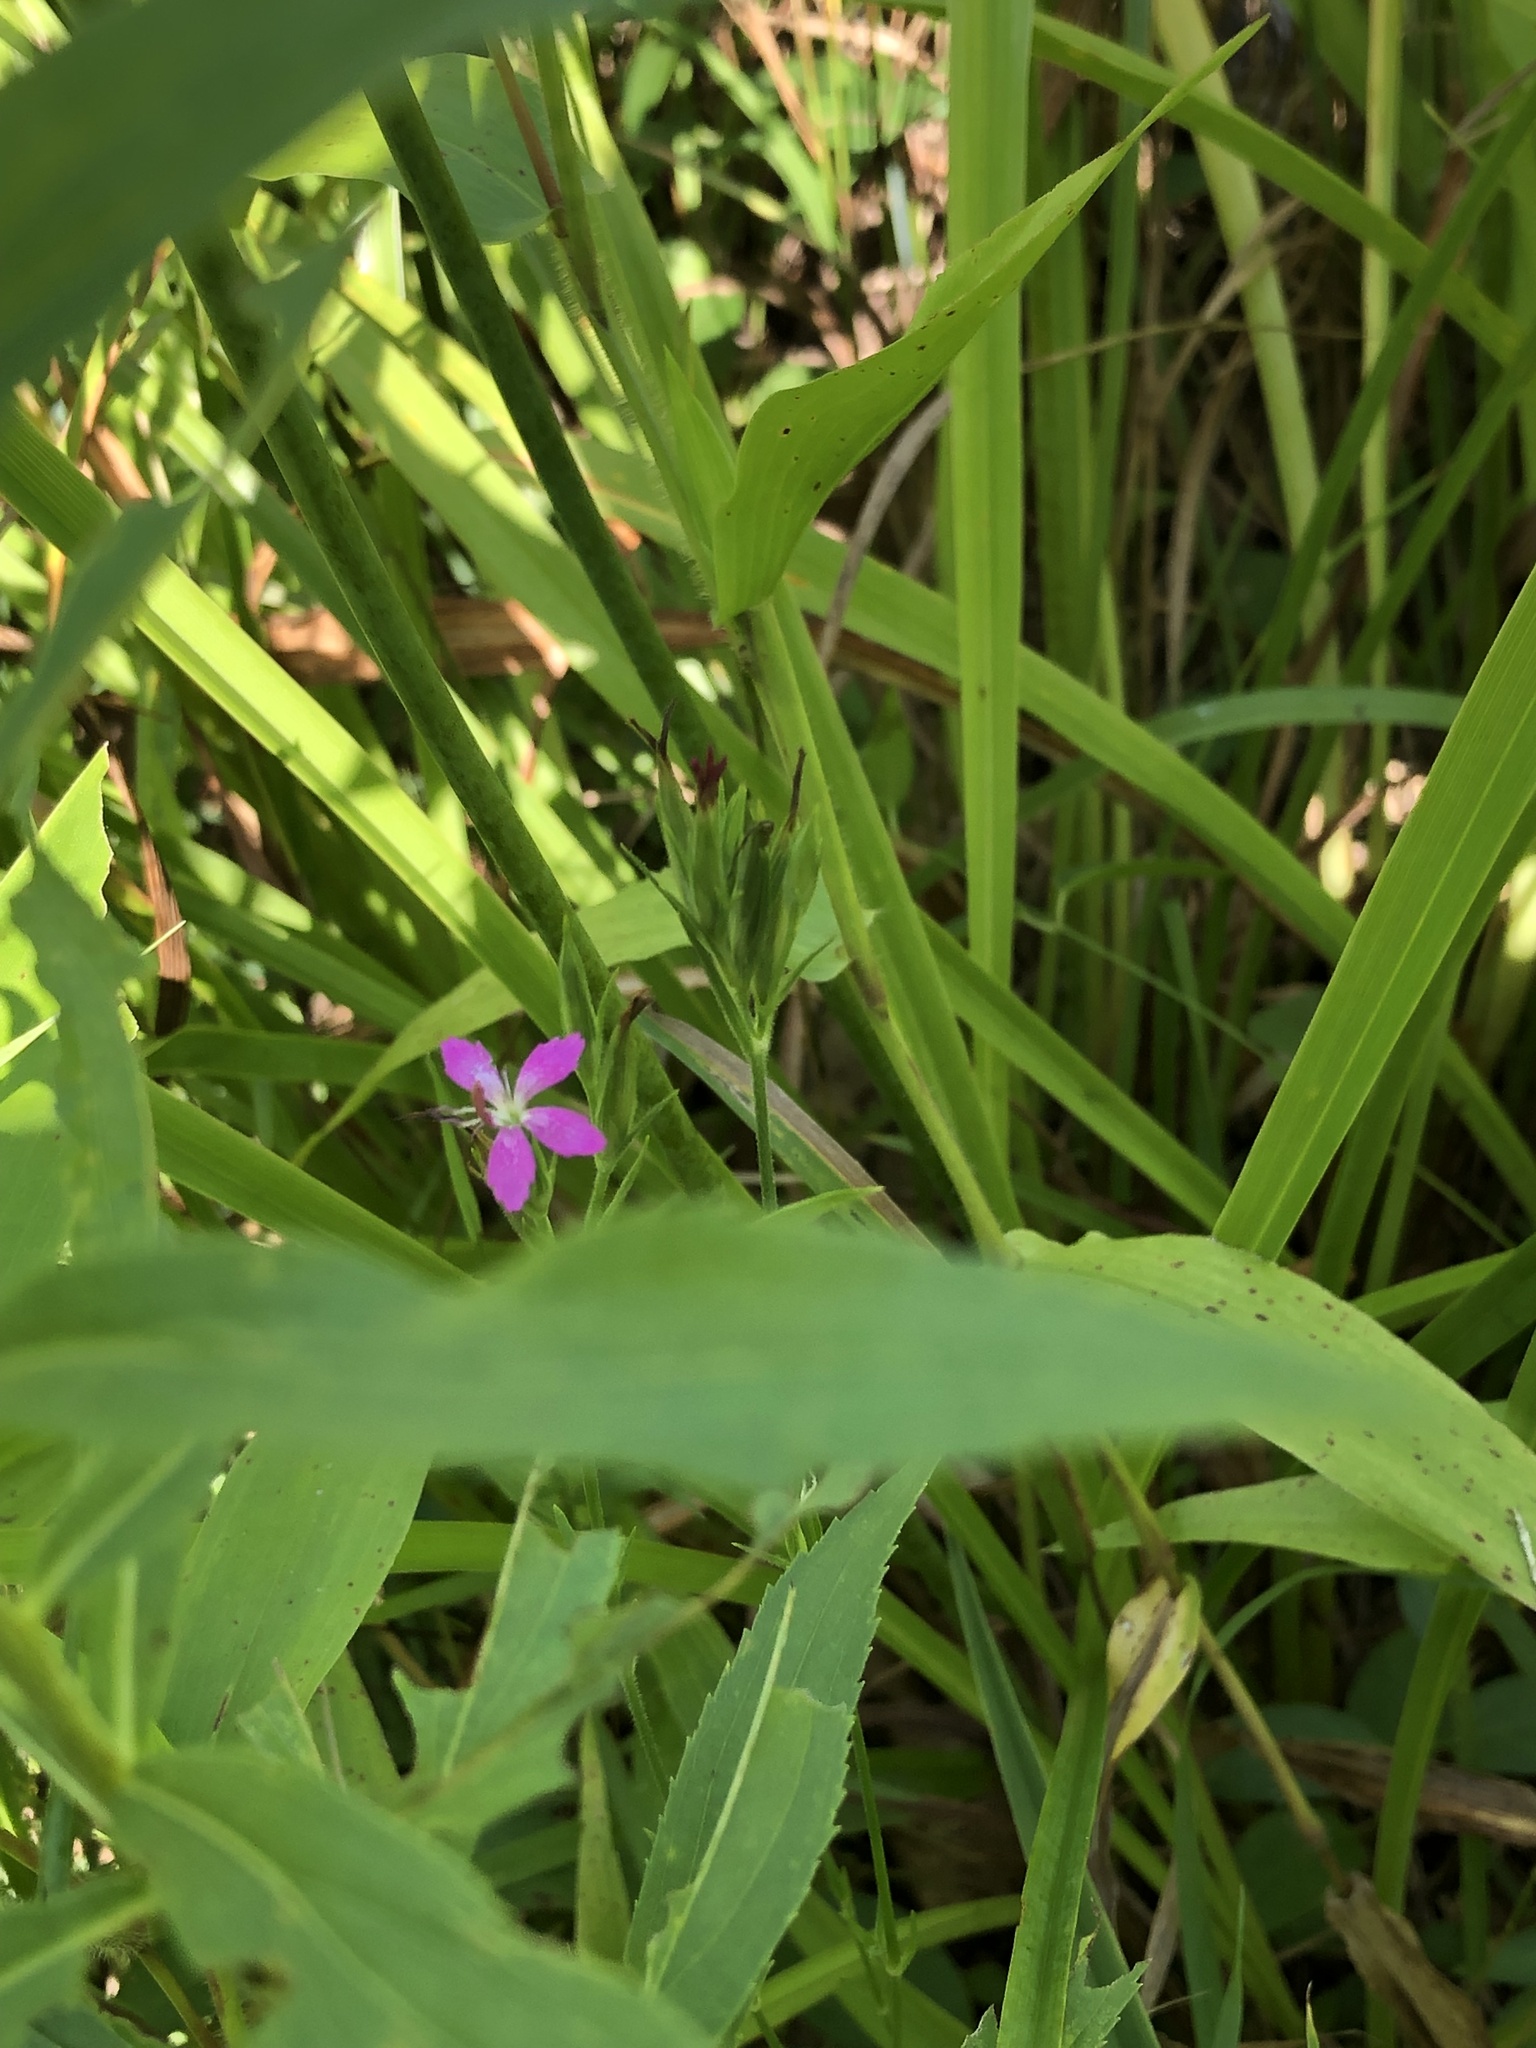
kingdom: Plantae
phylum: Tracheophyta
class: Magnoliopsida
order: Caryophyllales
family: Caryophyllaceae
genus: Dianthus
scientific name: Dianthus armeria
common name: Deptford pink
